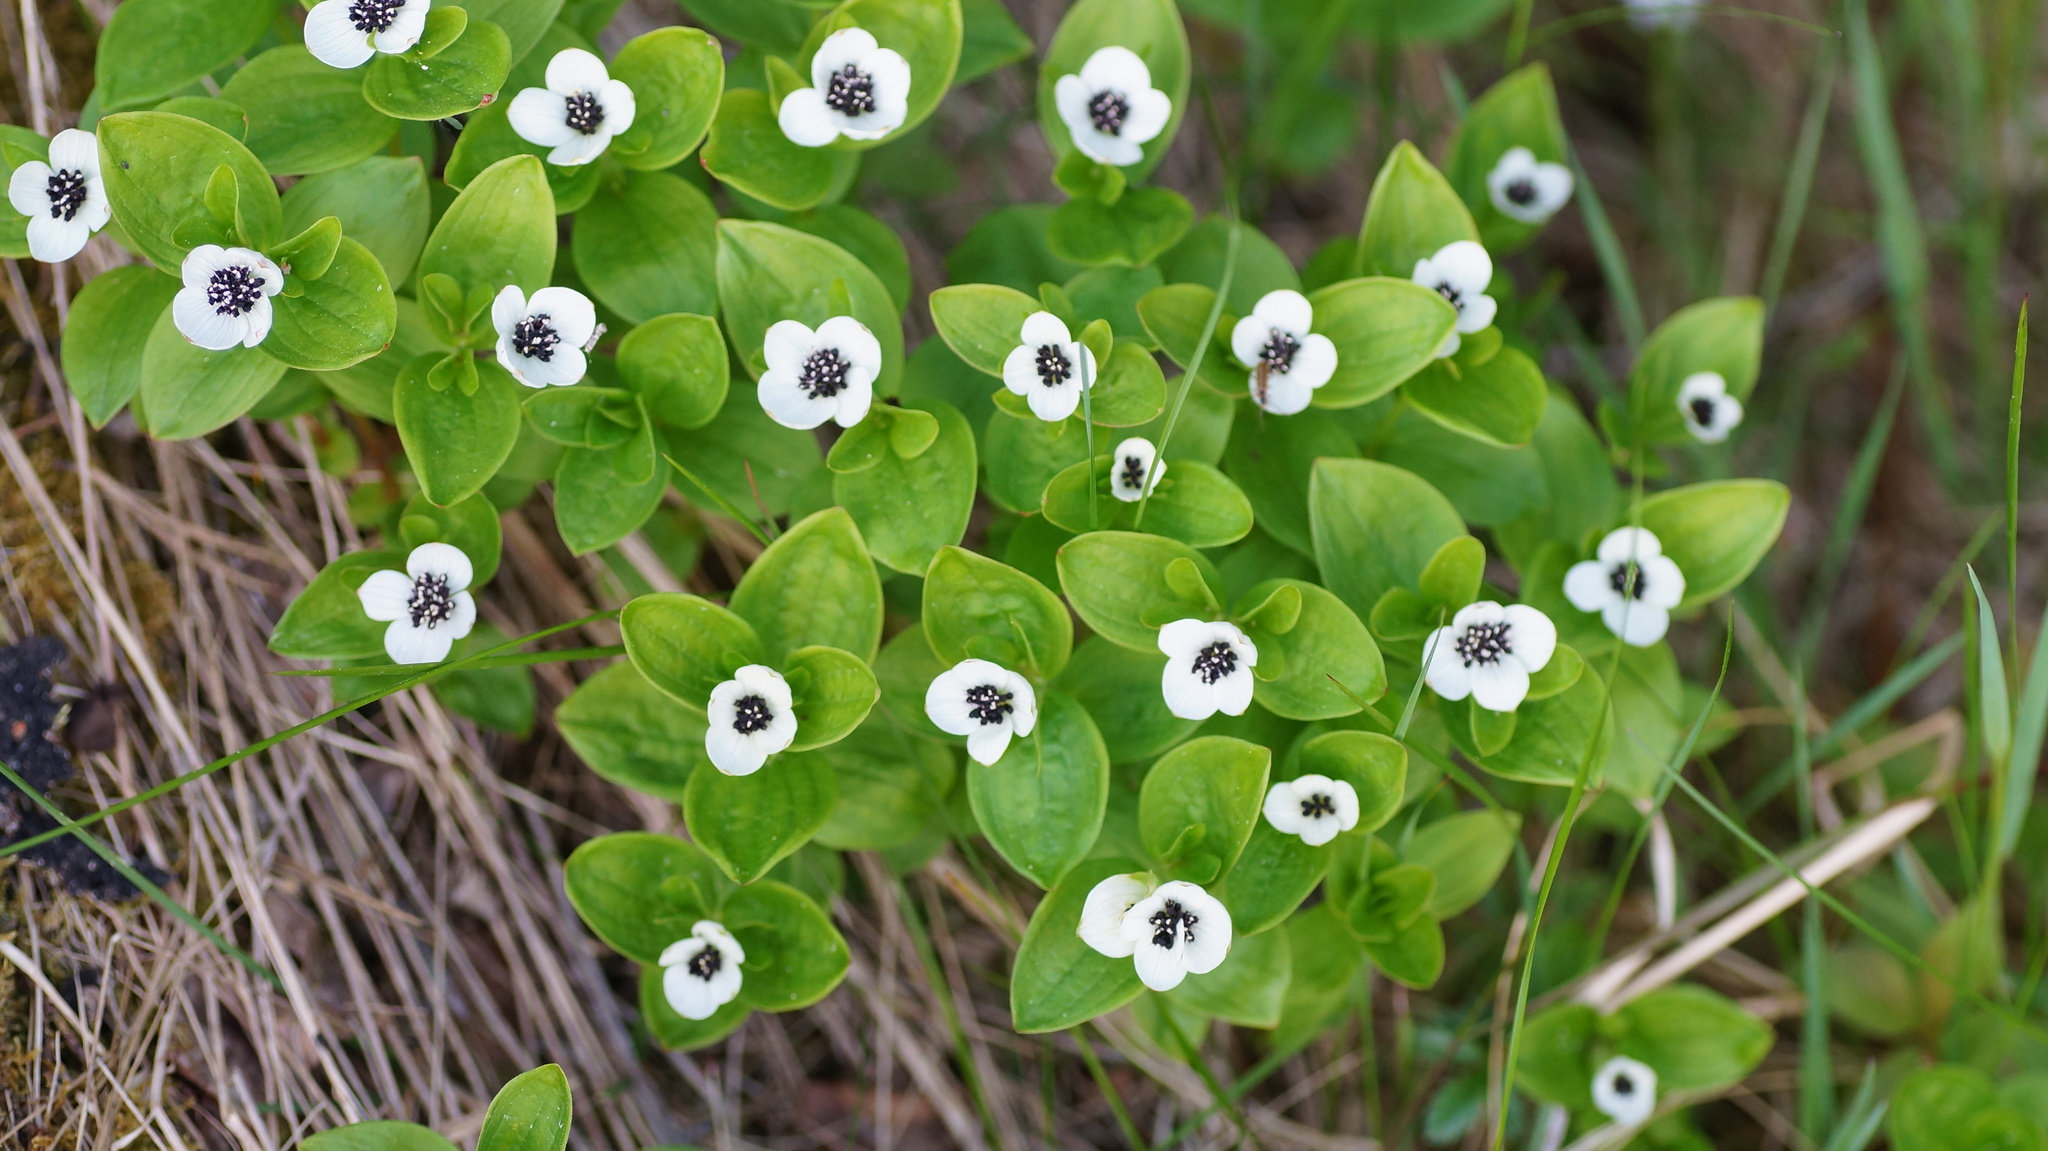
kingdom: Plantae
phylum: Tracheophyta
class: Magnoliopsida
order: Cornales
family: Cornaceae
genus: Cornus
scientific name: Cornus suecica
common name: Dwarf cornel
